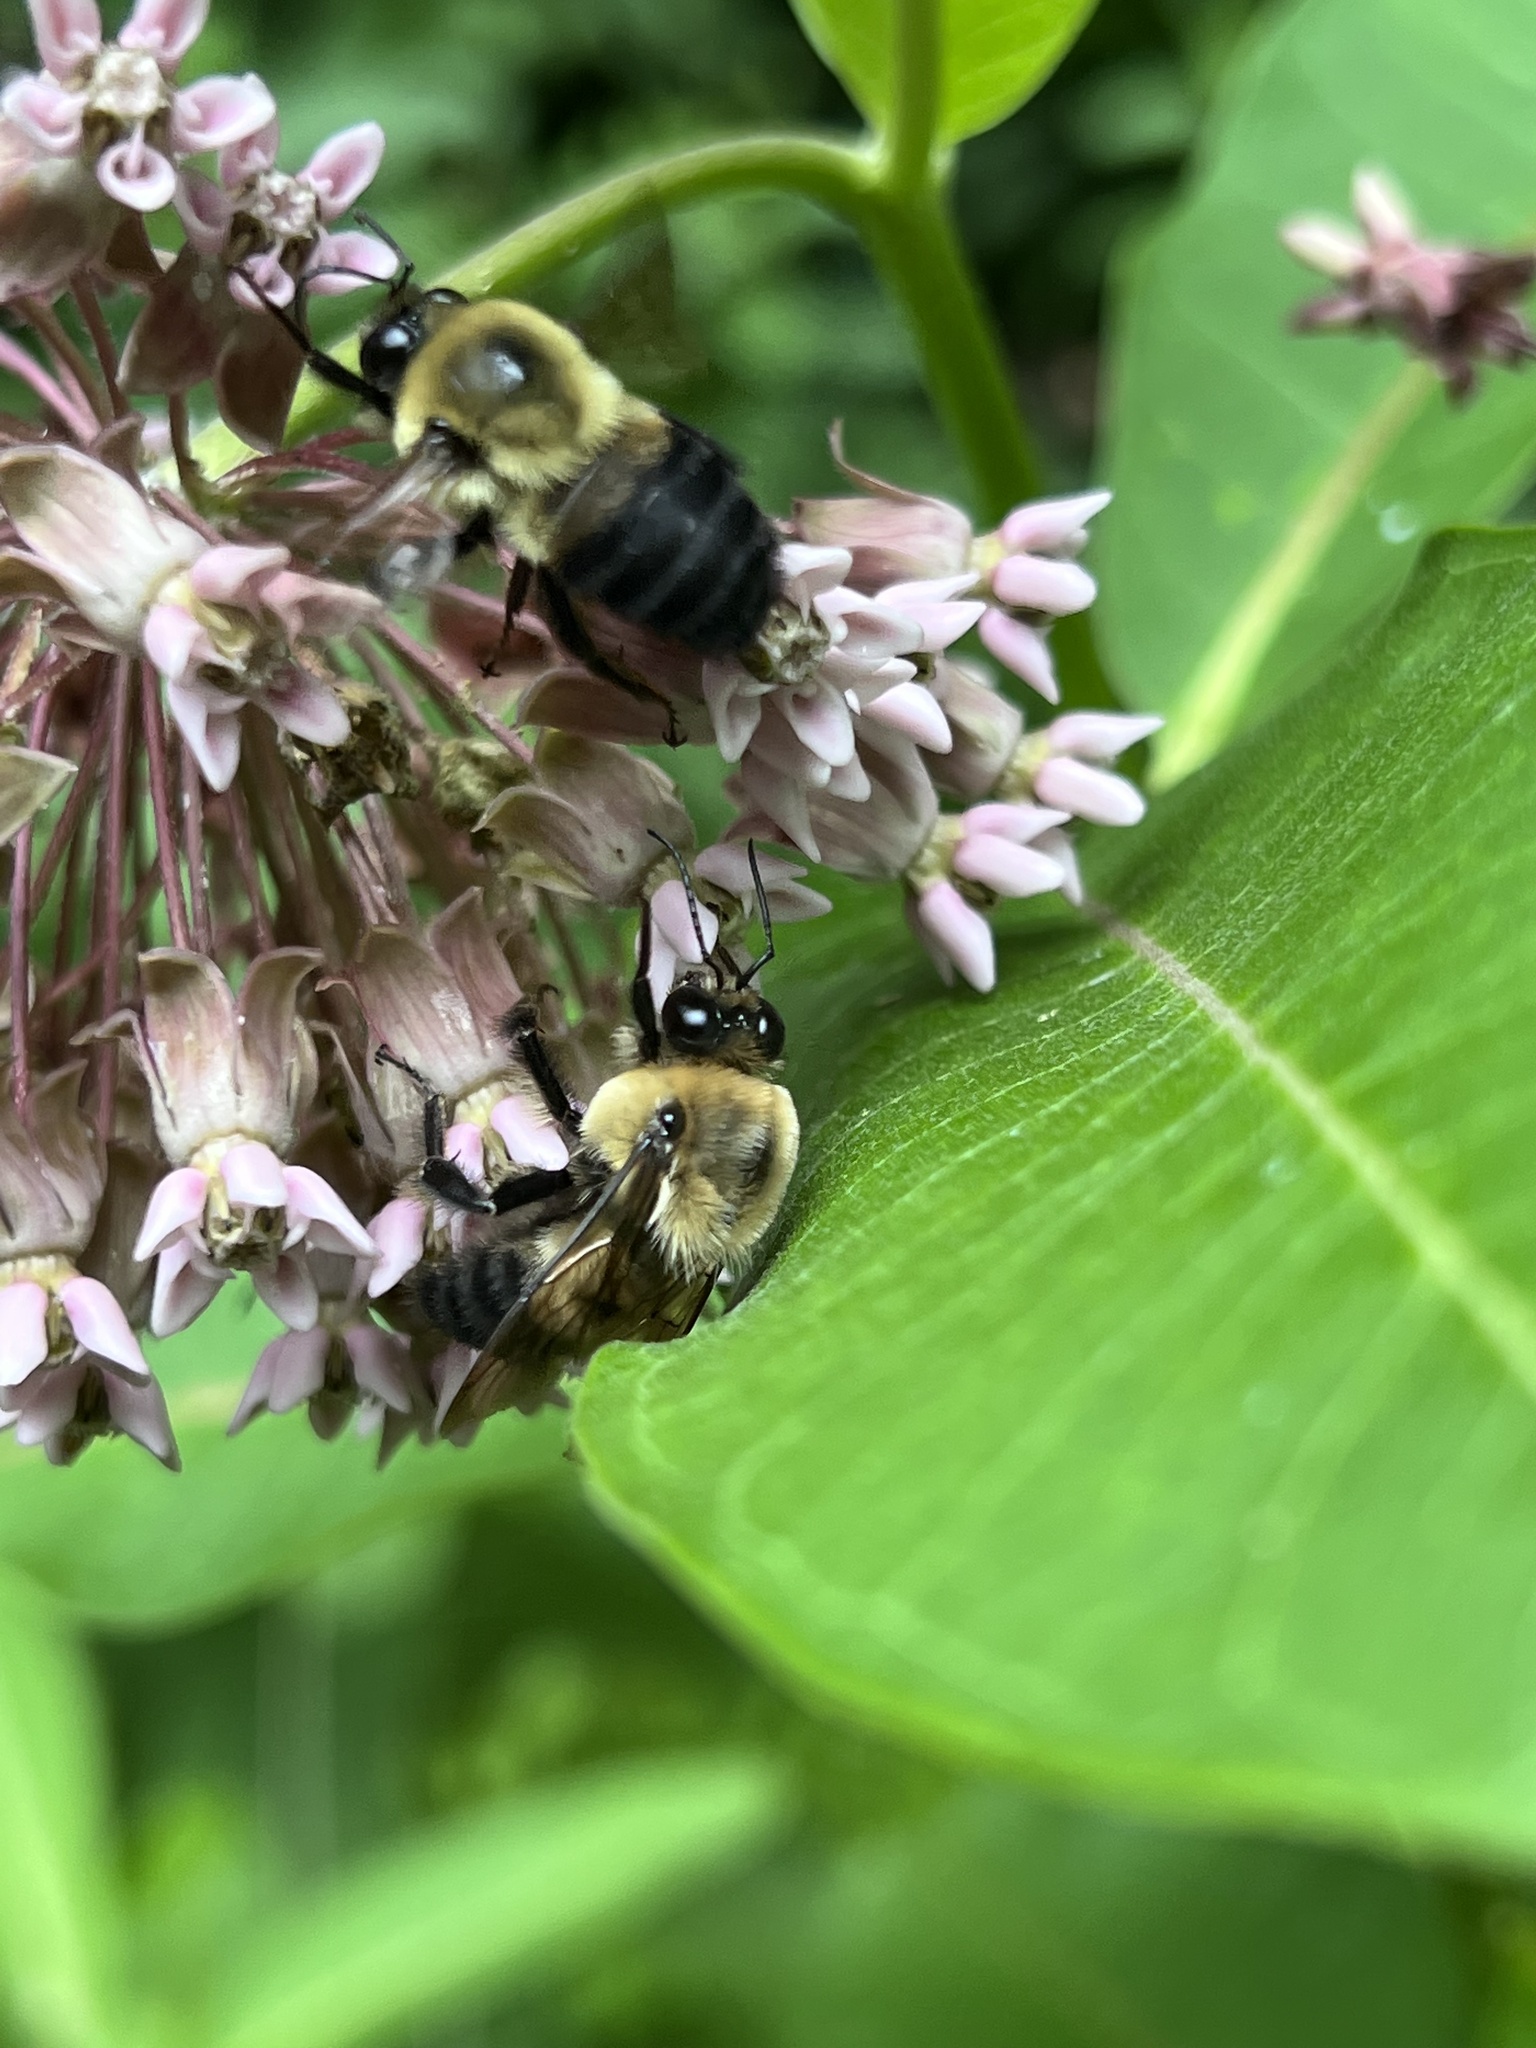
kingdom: Animalia
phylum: Arthropoda
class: Insecta
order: Hymenoptera
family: Apidae
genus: Bombus
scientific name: Bombus griseocollis
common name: Brown-belted bumble bee
